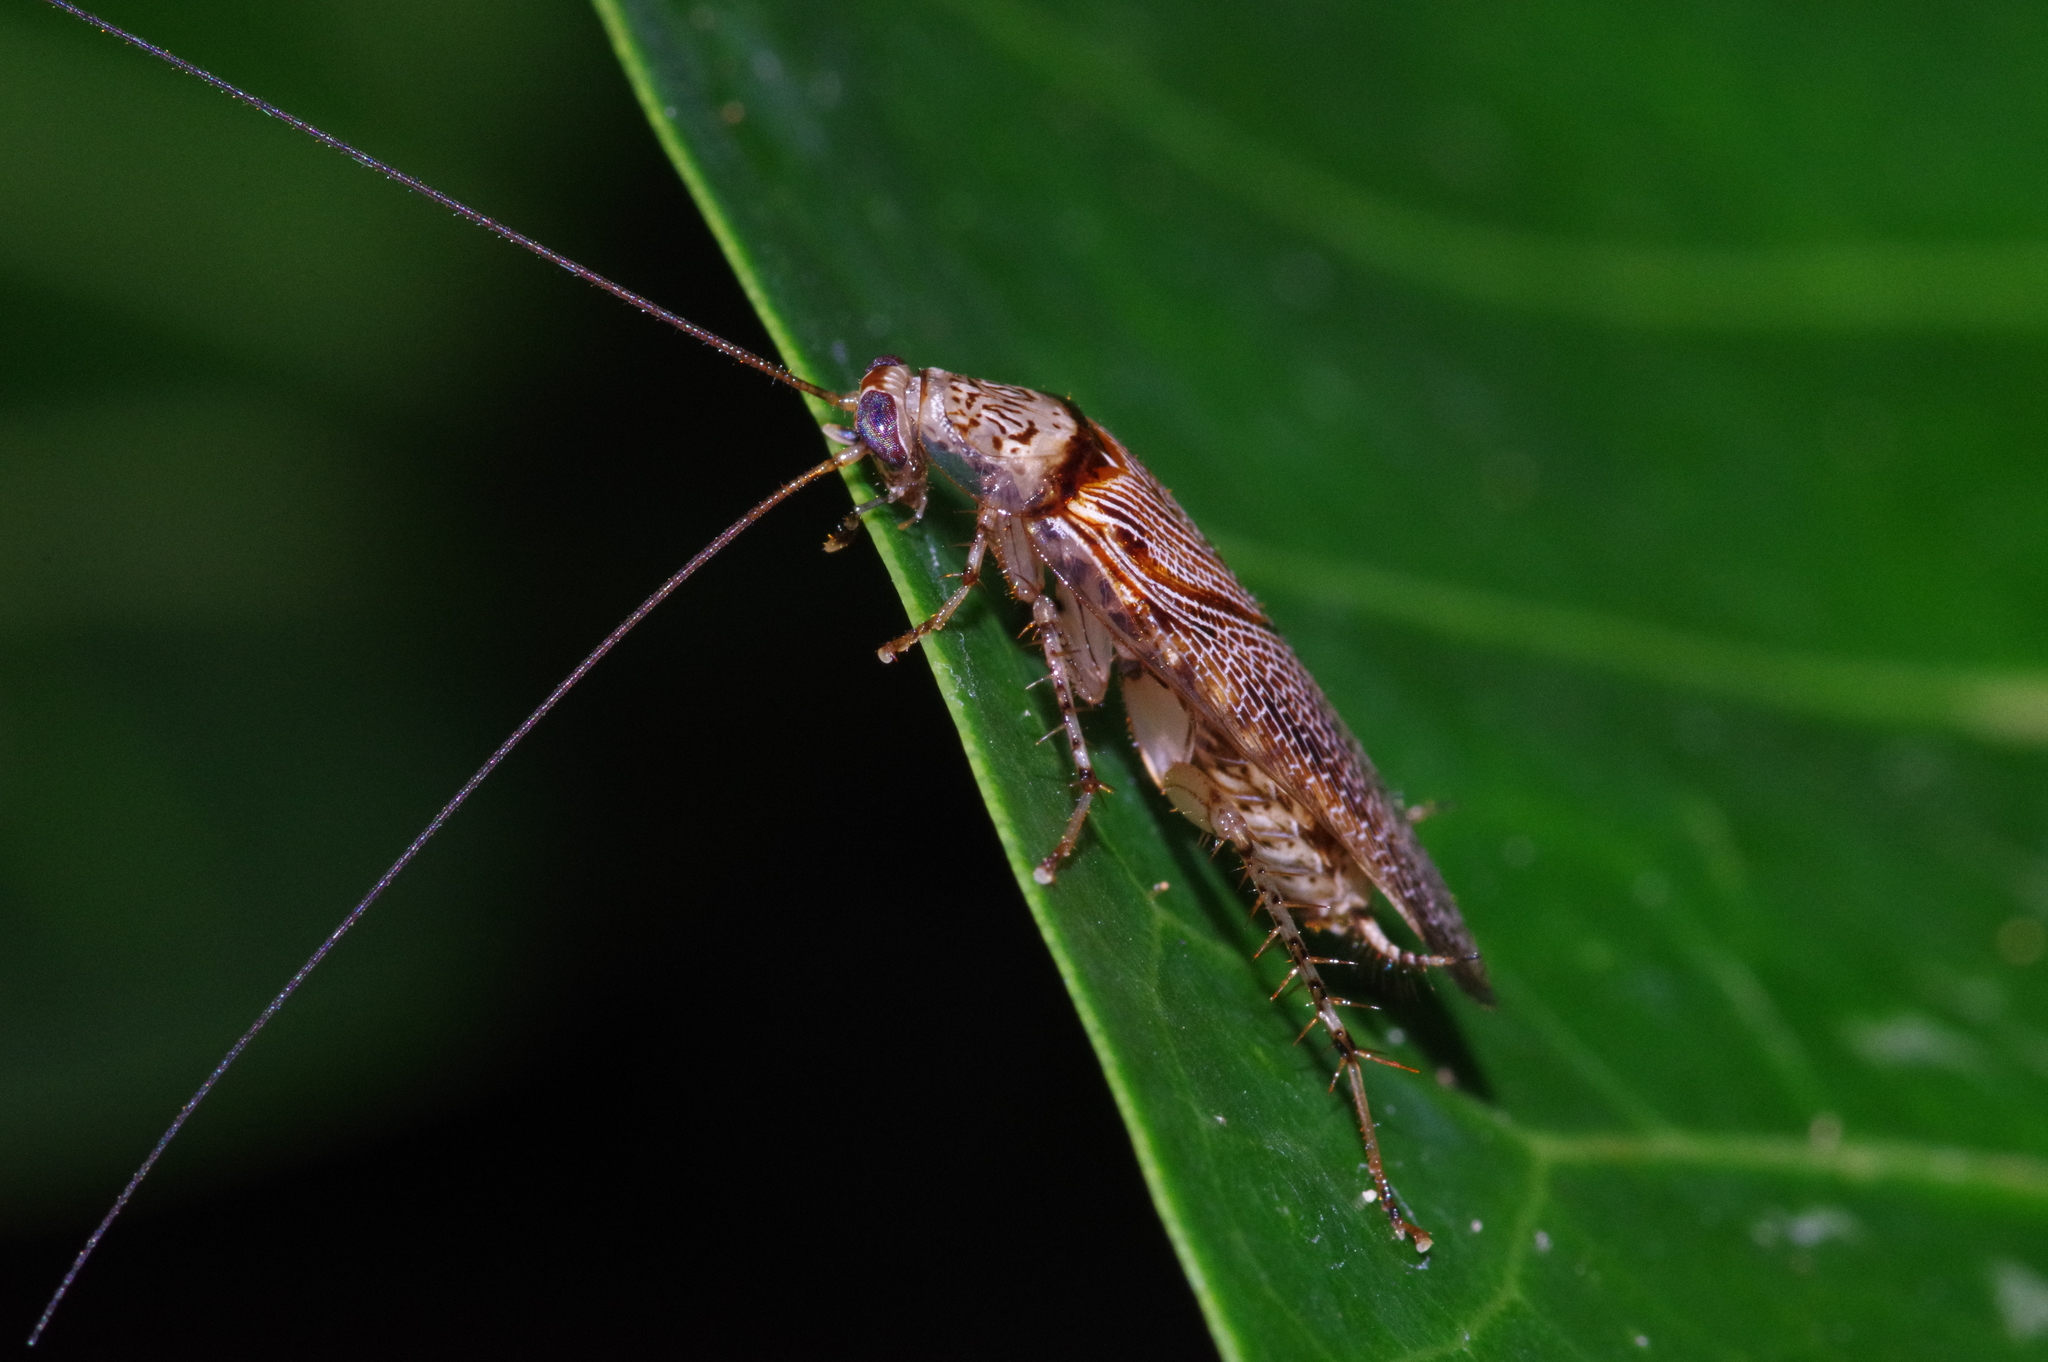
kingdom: Animalia
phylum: Arthropoda
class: Insecta
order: Blattodea
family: Ectobiidae
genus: Balta
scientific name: Balta notulata
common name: Cockroach
